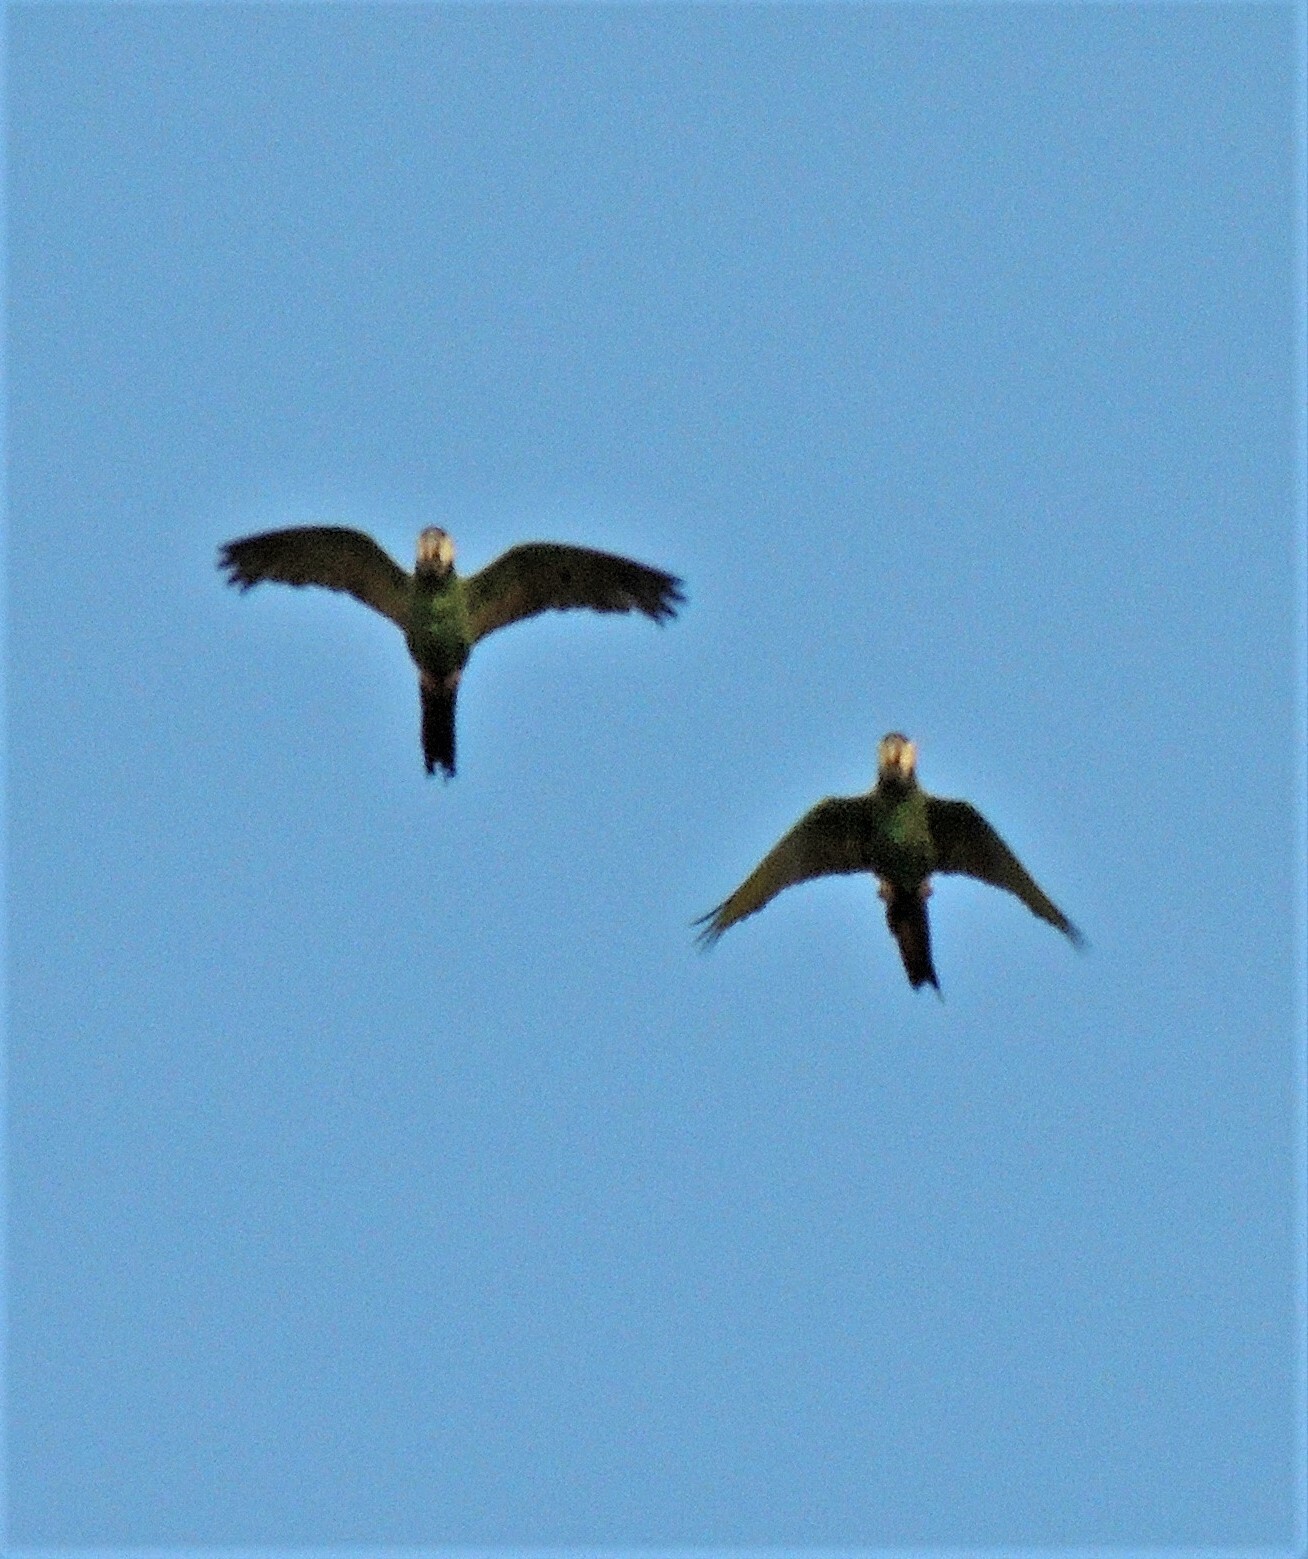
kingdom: Animalia
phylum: Chordata
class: Aves
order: Psittaciformes
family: Psittacidae
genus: Primolius
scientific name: Primolius auricollis
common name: Golden-collared macaw
